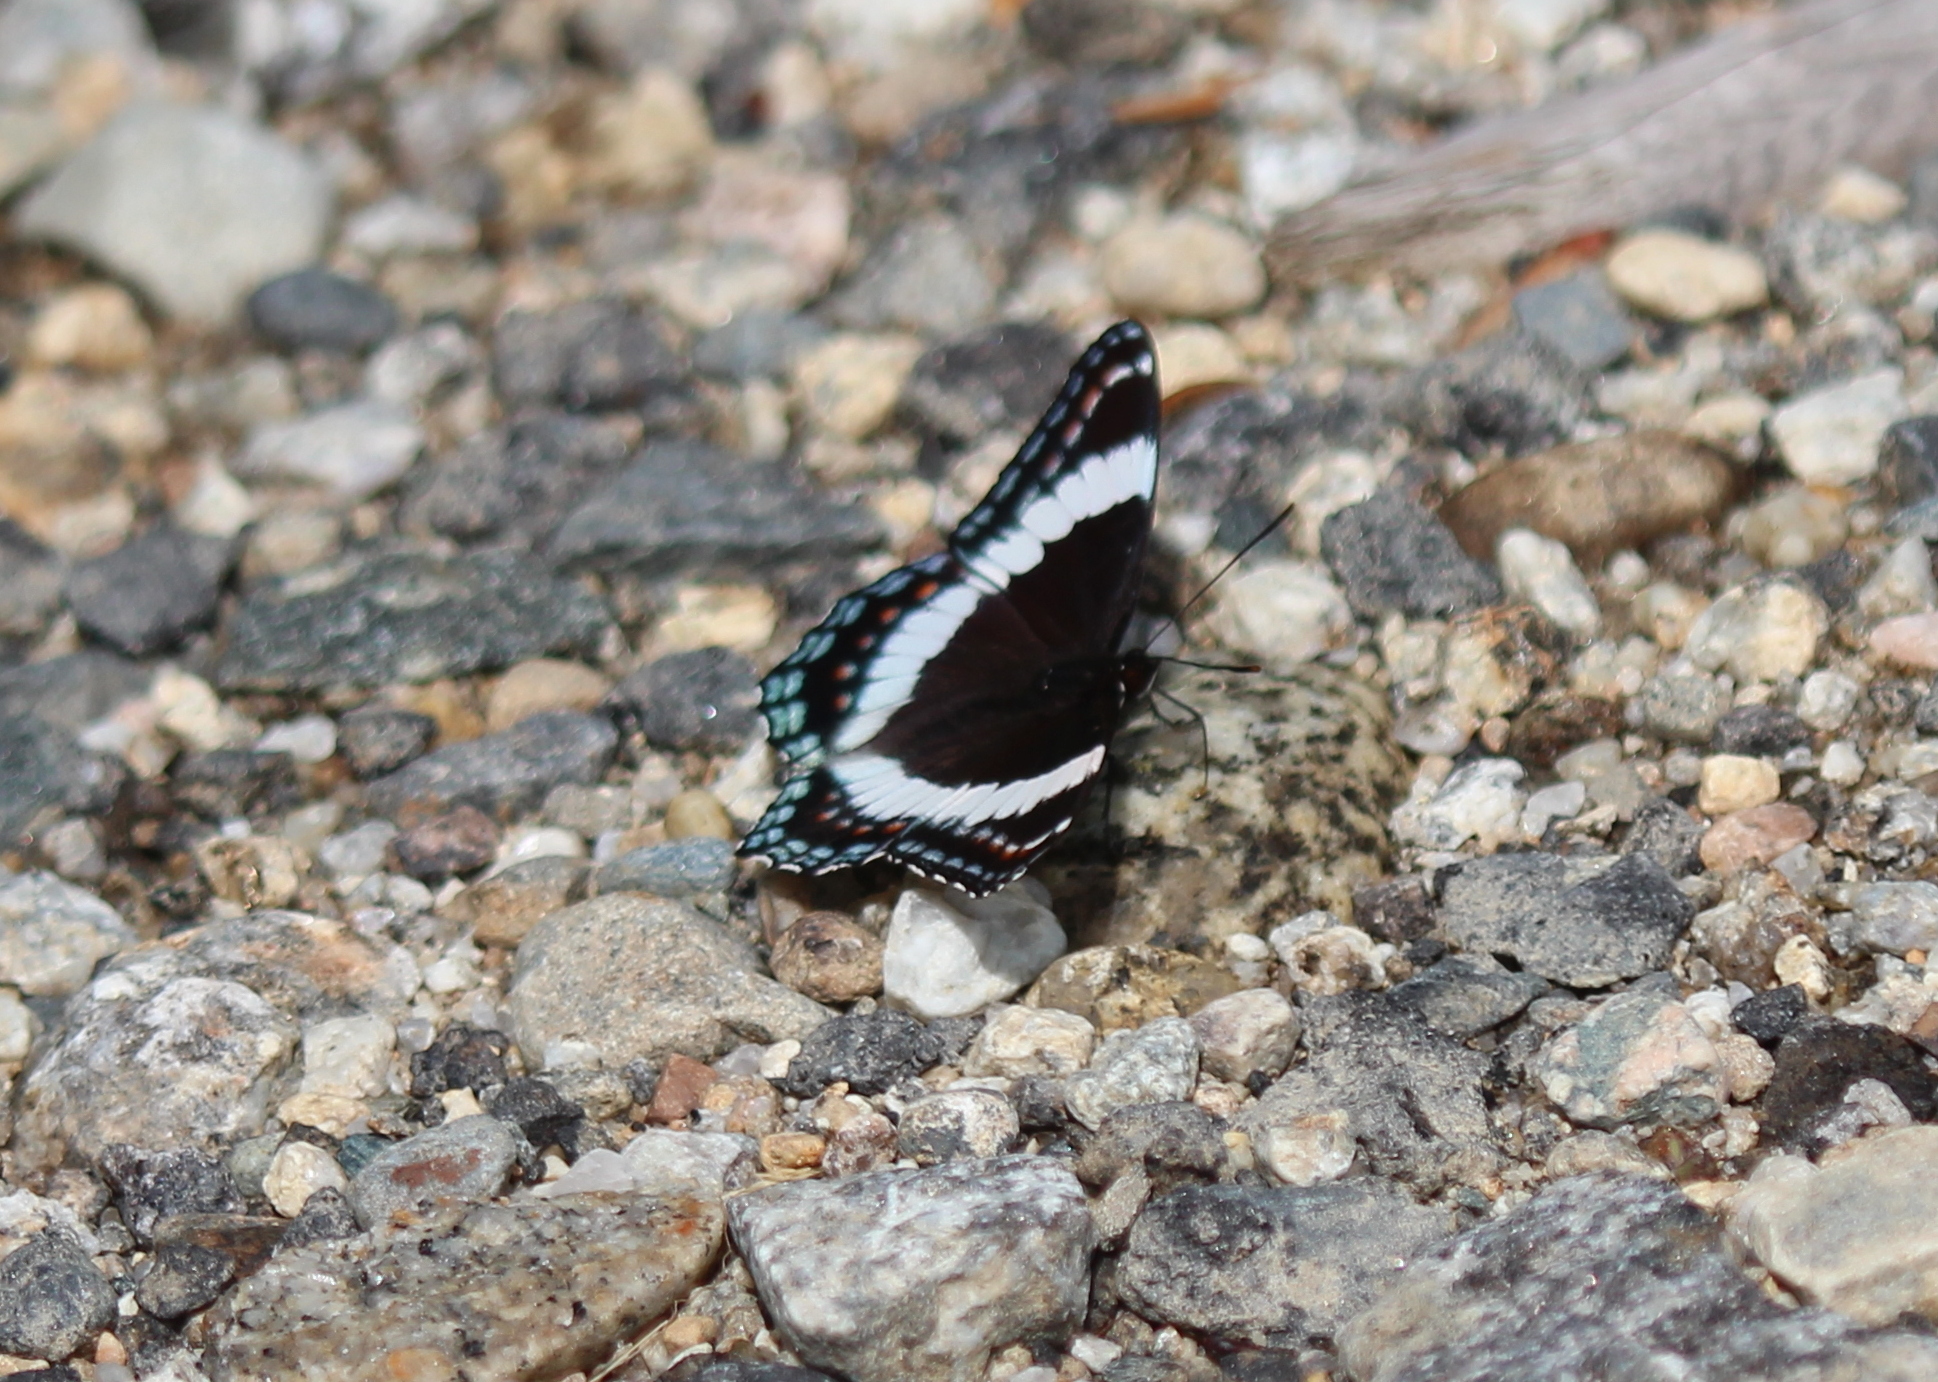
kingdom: Animalia
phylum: Arthropoda
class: Insecta
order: Lepidoptera
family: Nymphalidae
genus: Limenitis
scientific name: Limenitis
